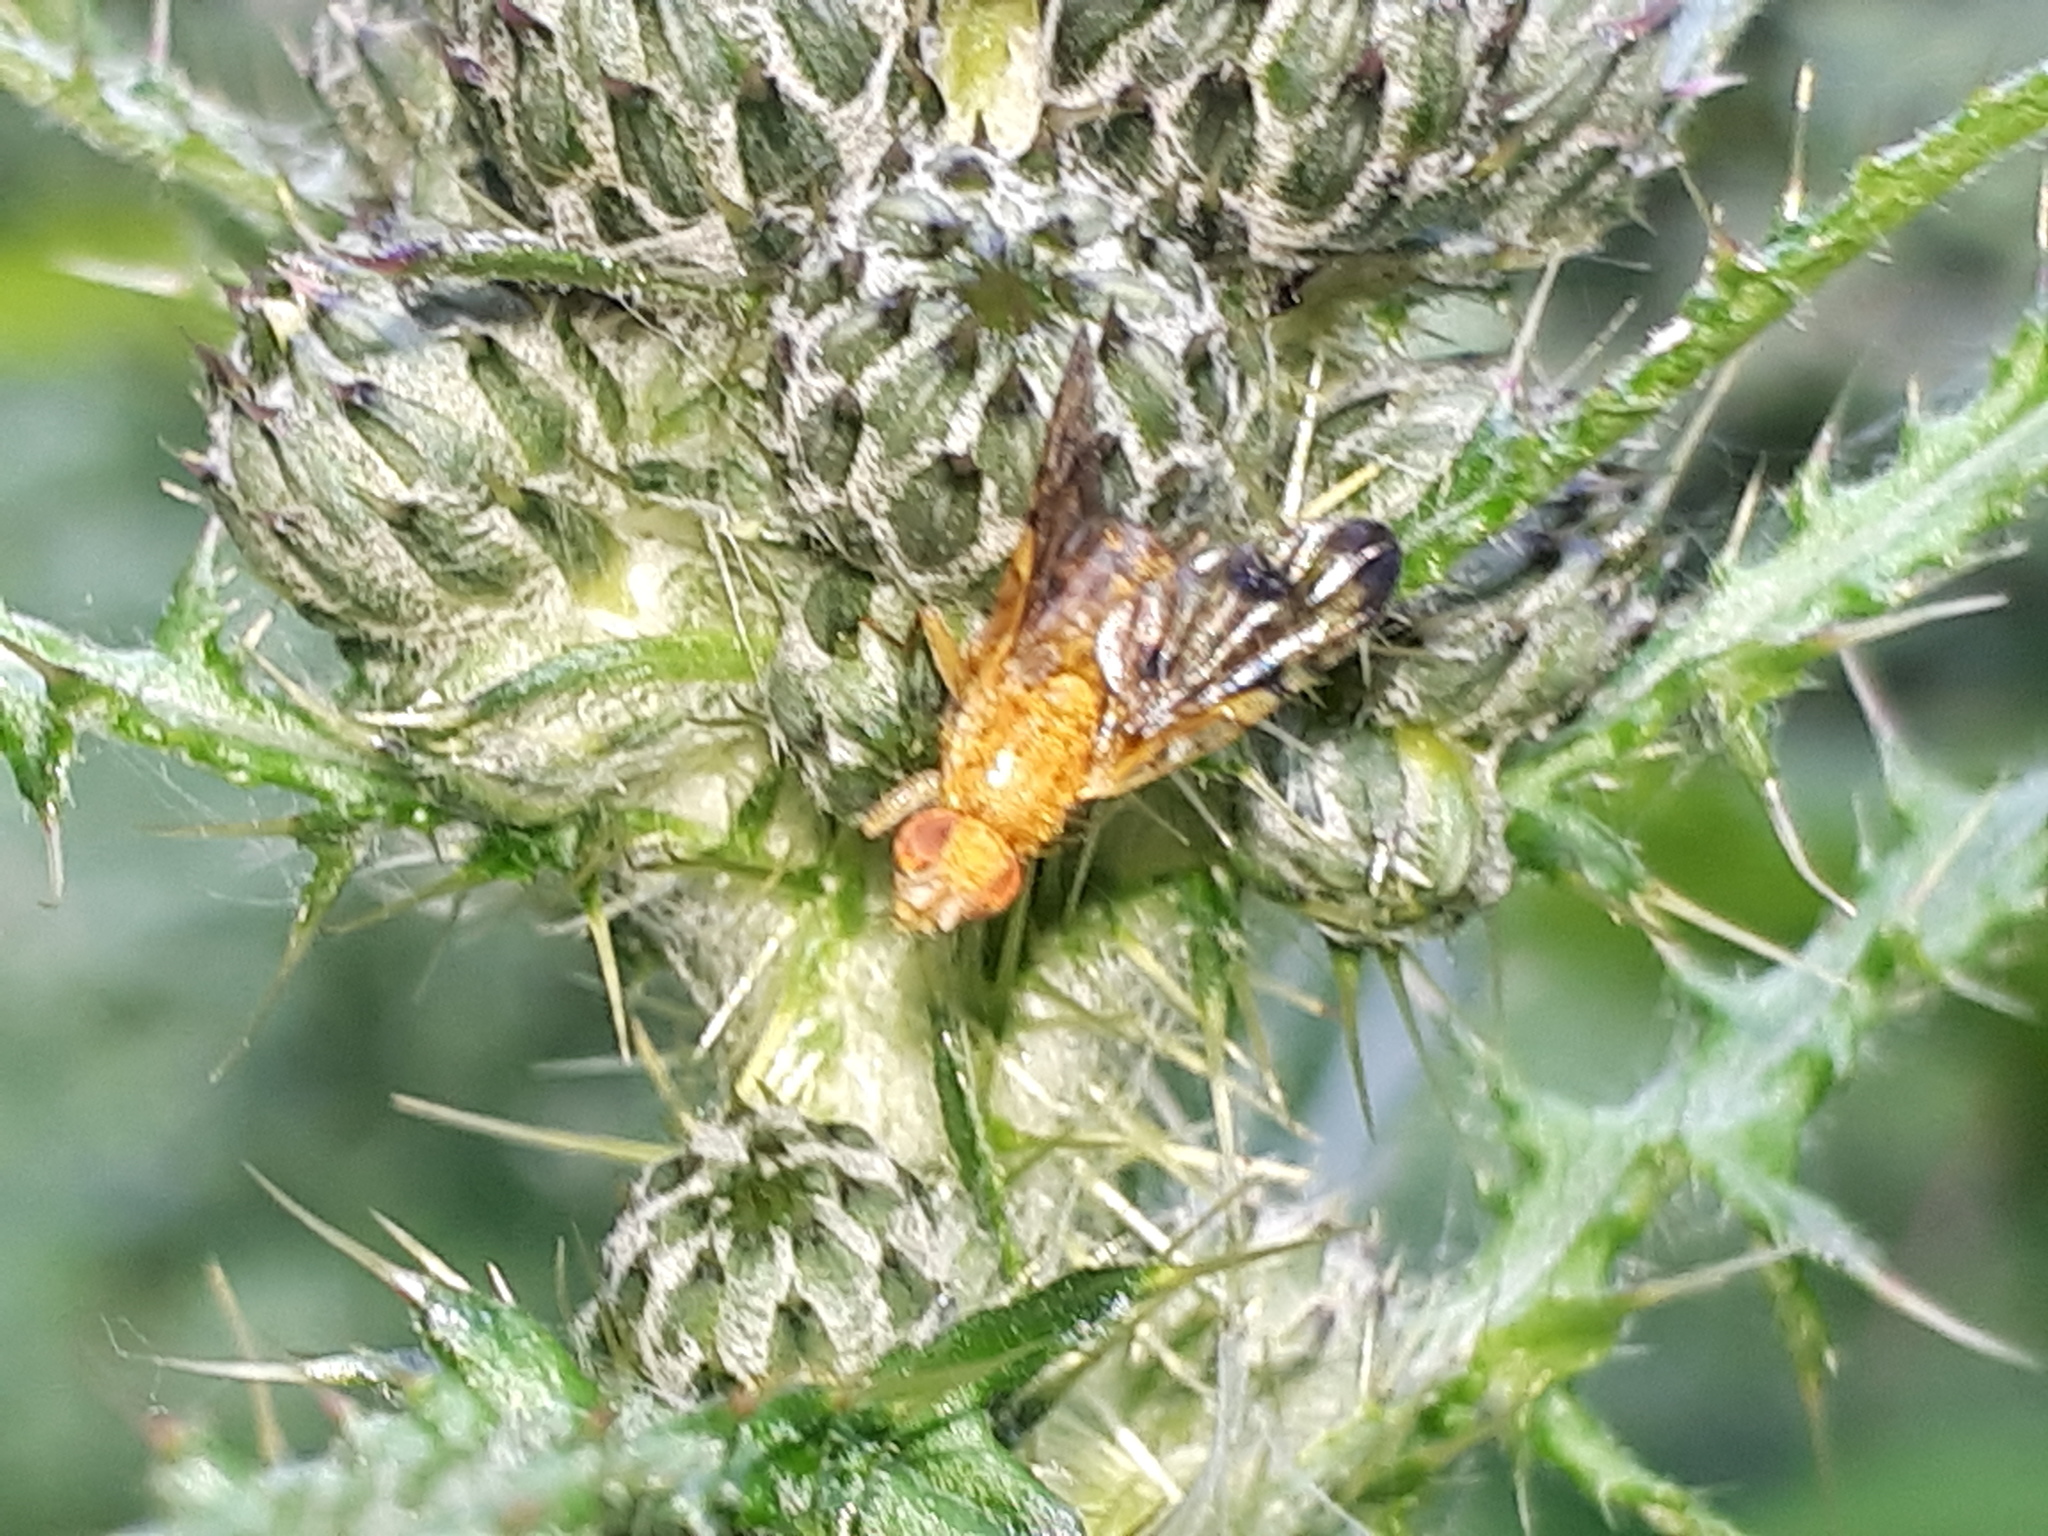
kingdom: Animalia
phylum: Arthropoda
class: Insecta
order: Diptera
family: Tephritidae
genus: Xyphosia
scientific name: Xyphosia miliaria
